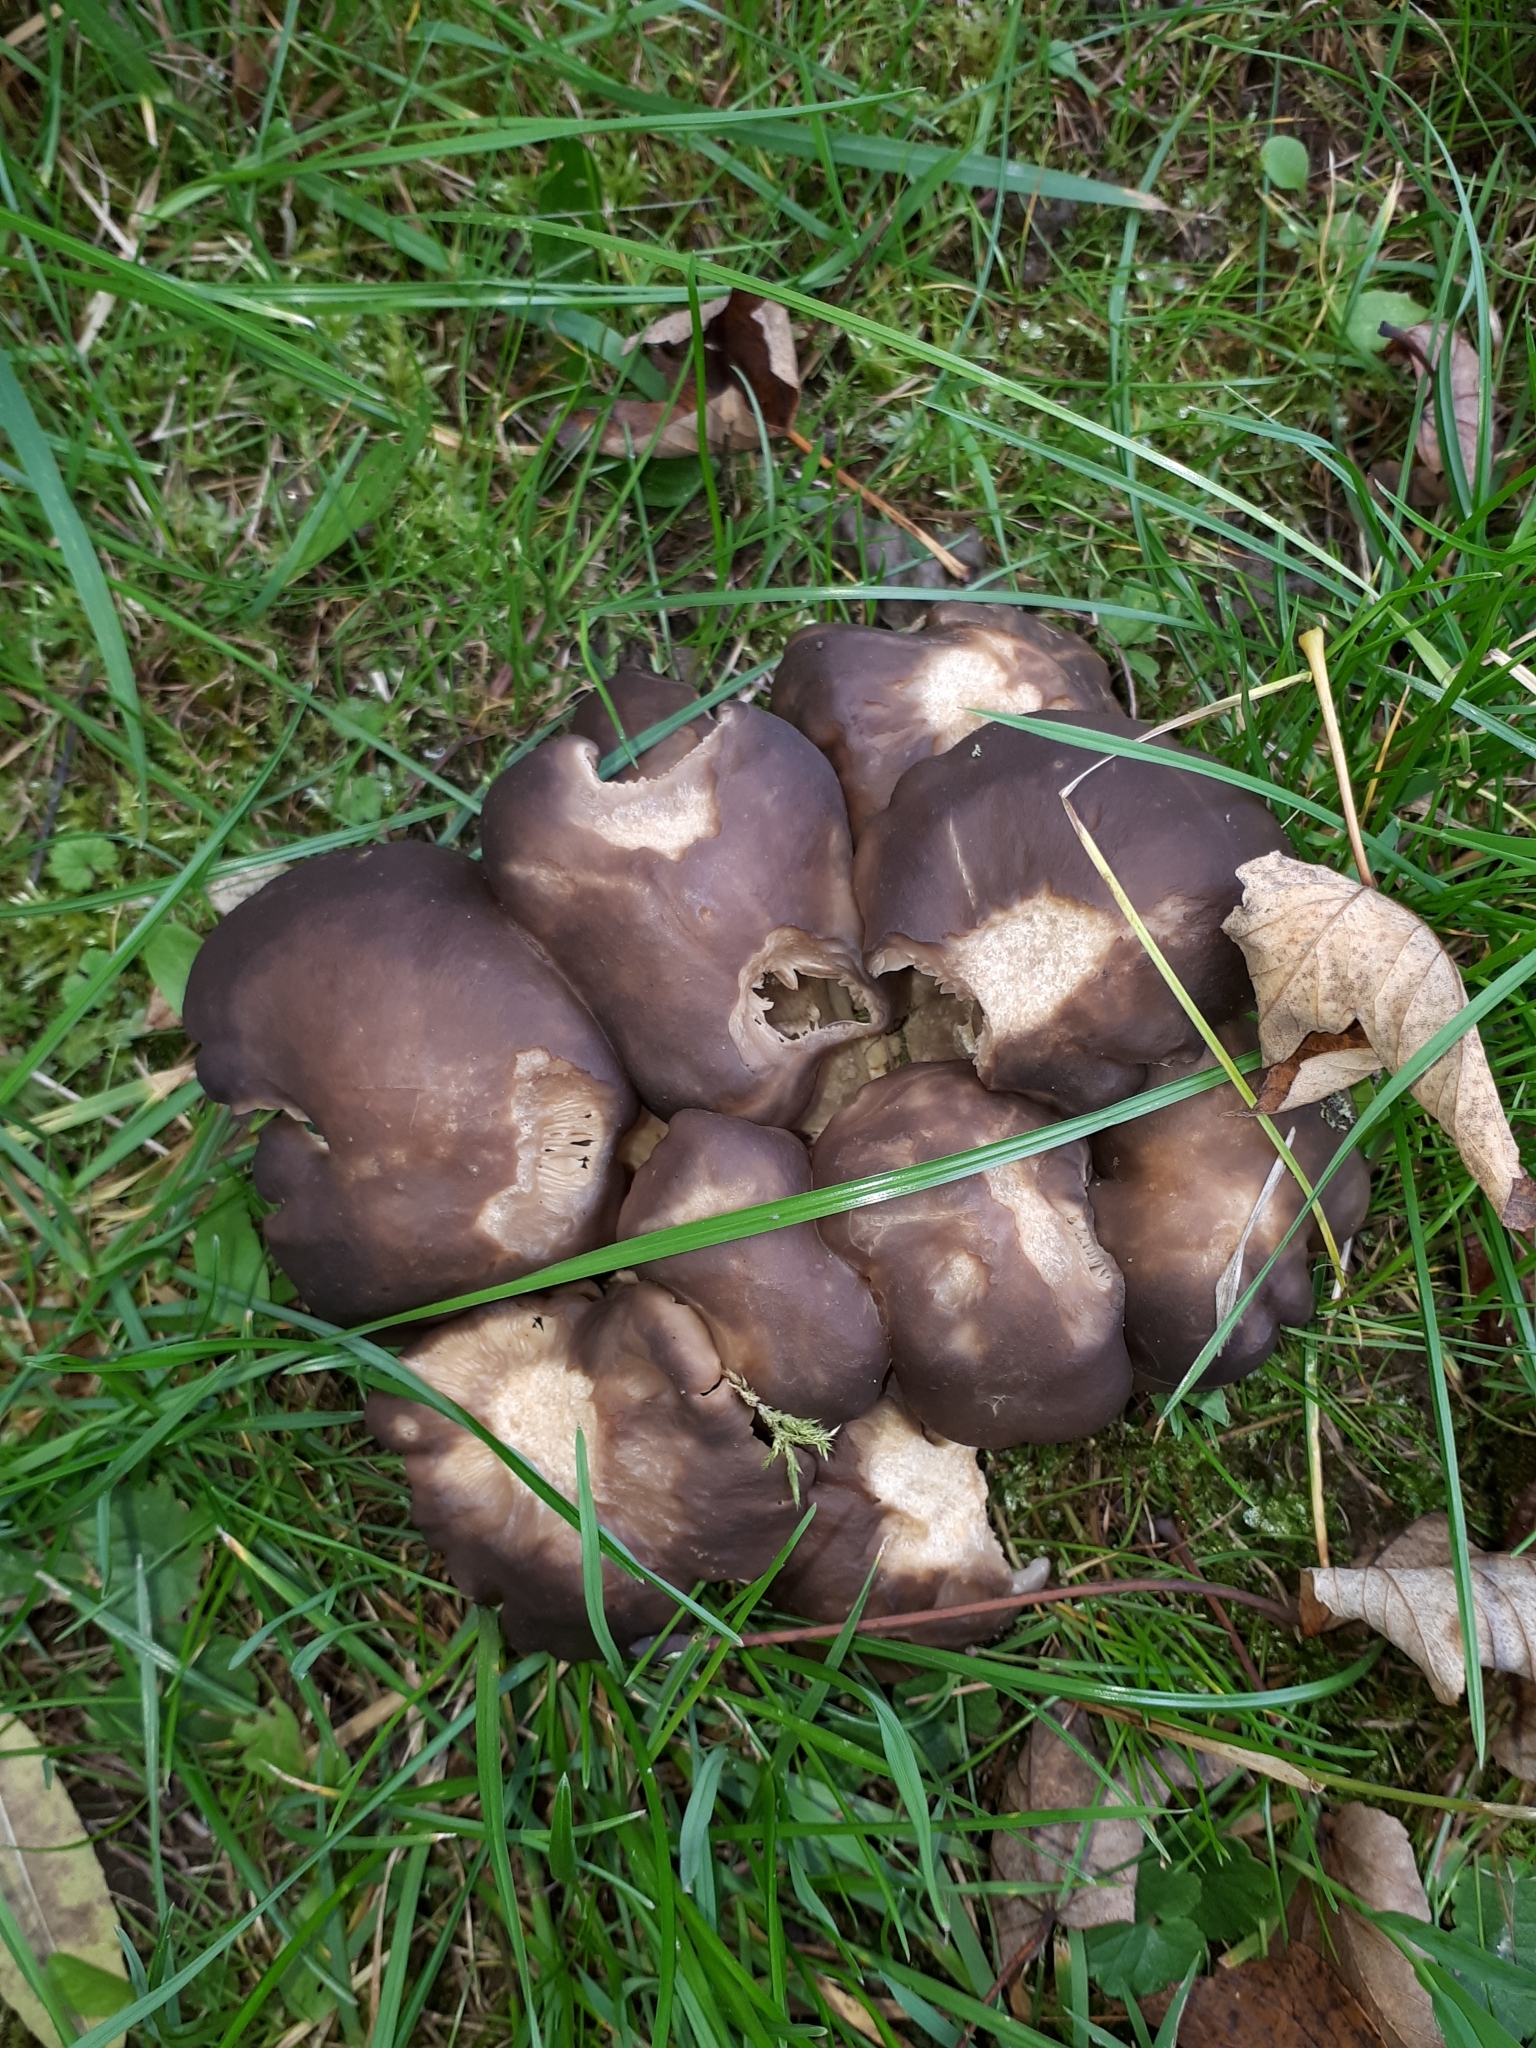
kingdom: Fungi
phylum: Basidiomycota
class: Agaricomycetes
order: Agaricales
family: Lyophyllaceae
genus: Lyophyllum
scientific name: Lyophyllum decastes
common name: Clustered domecap
